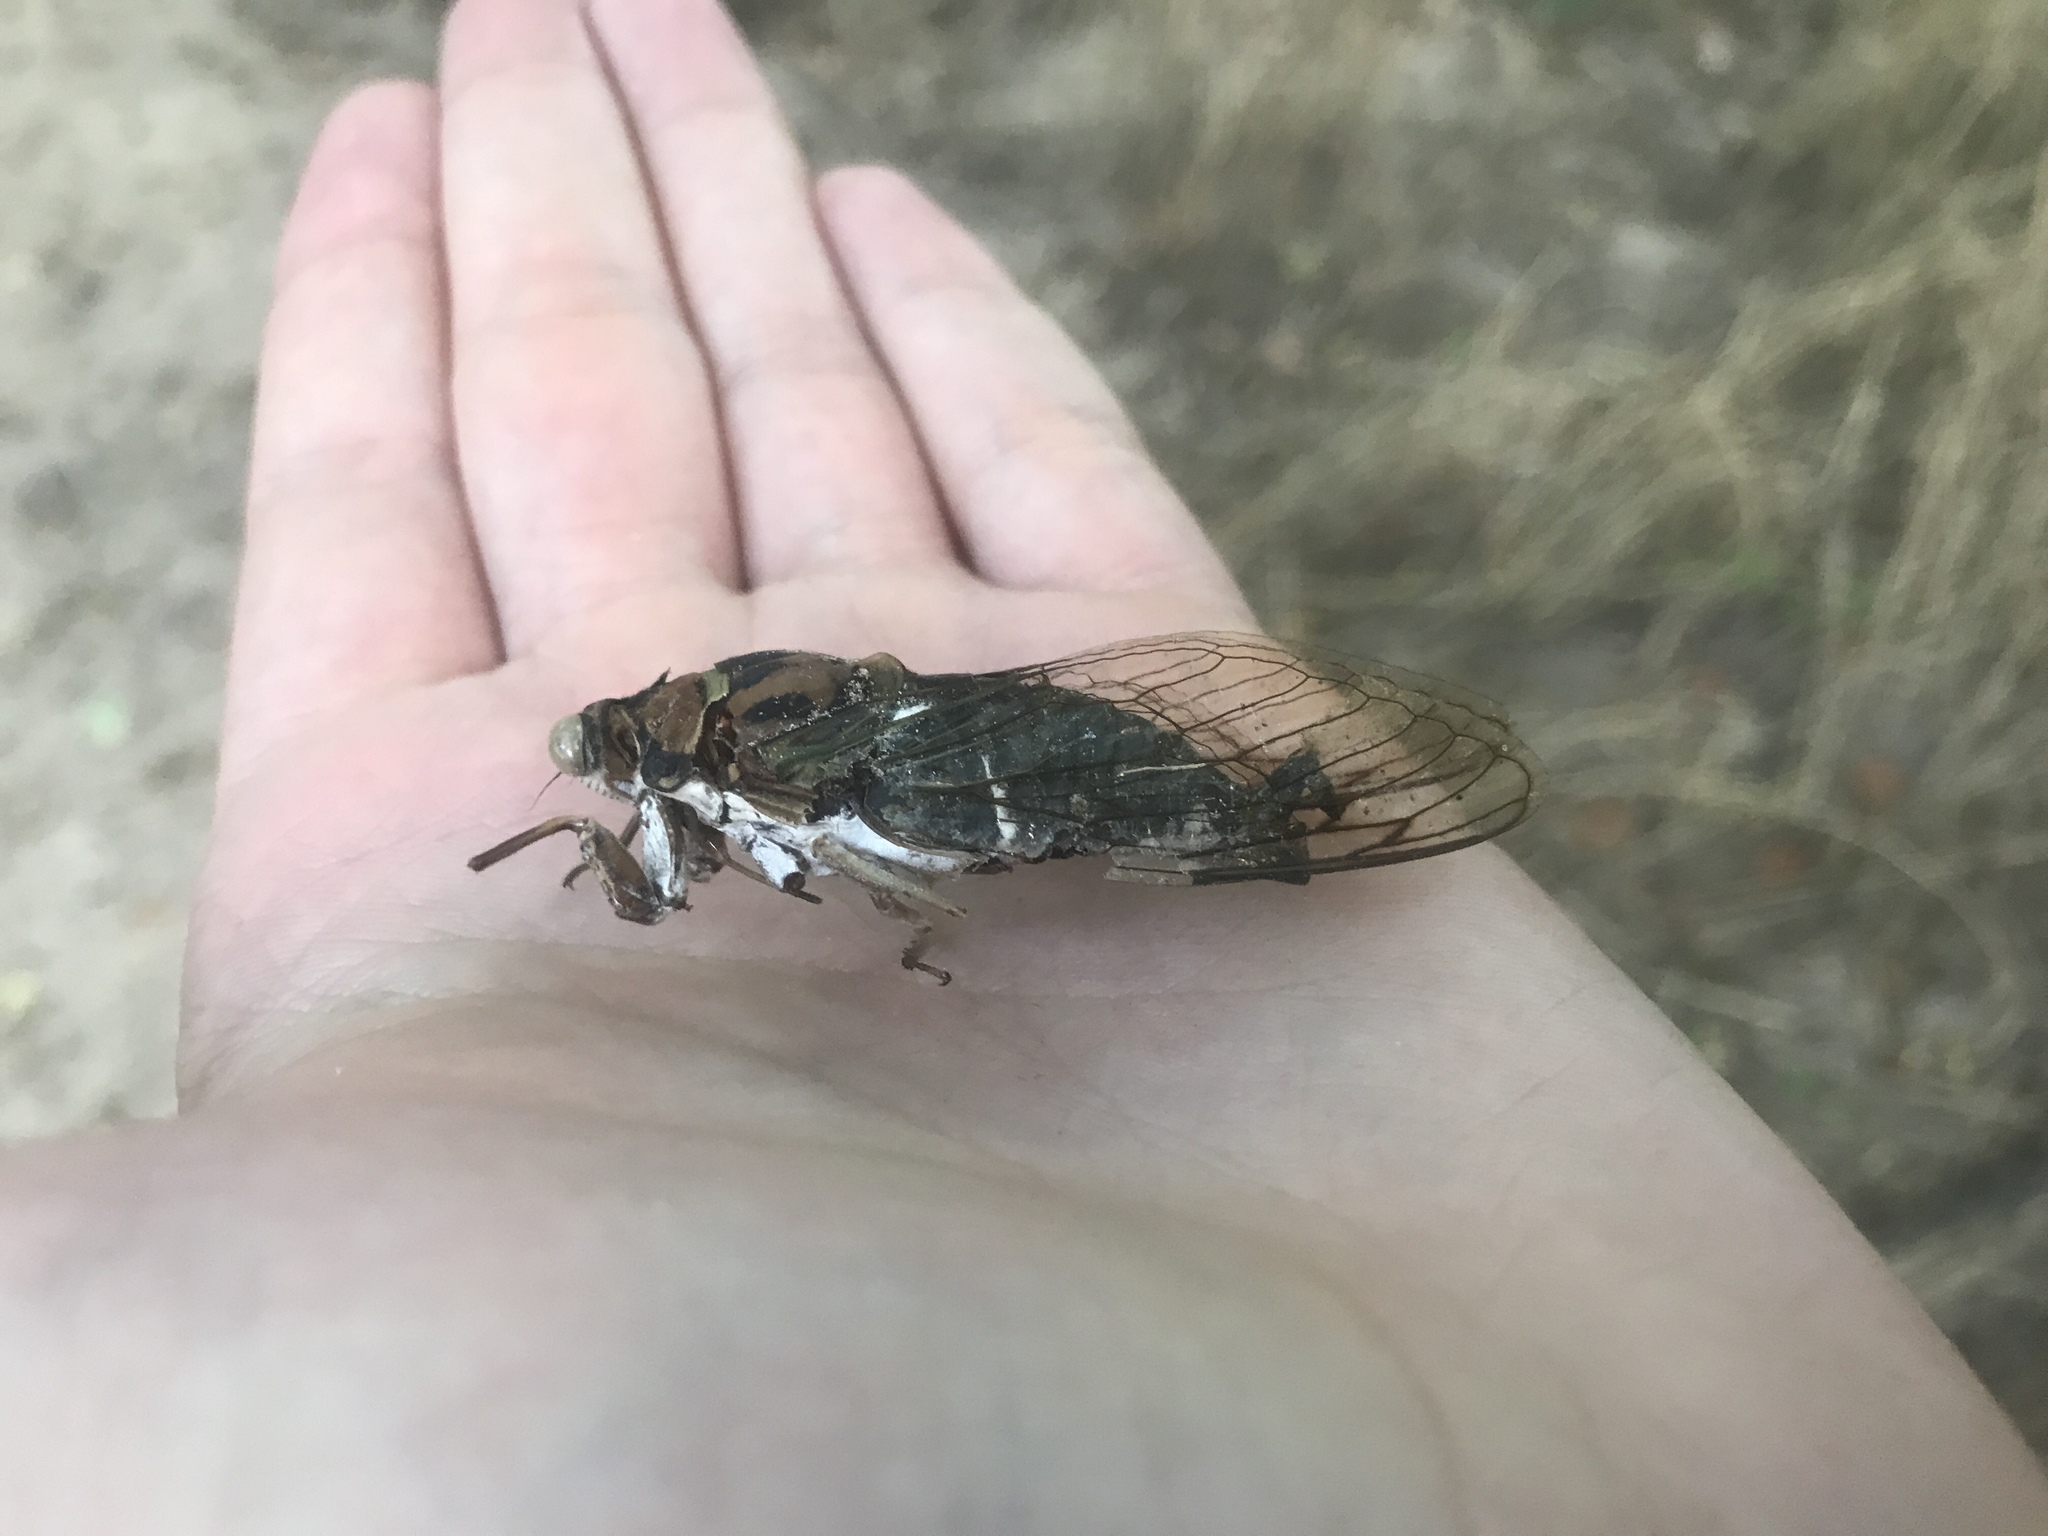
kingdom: Animalia
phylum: Arthropoda
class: Insecta
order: Hemiptera
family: Cicadidae
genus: Neotibicen
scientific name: Neotibicen pruinosus
